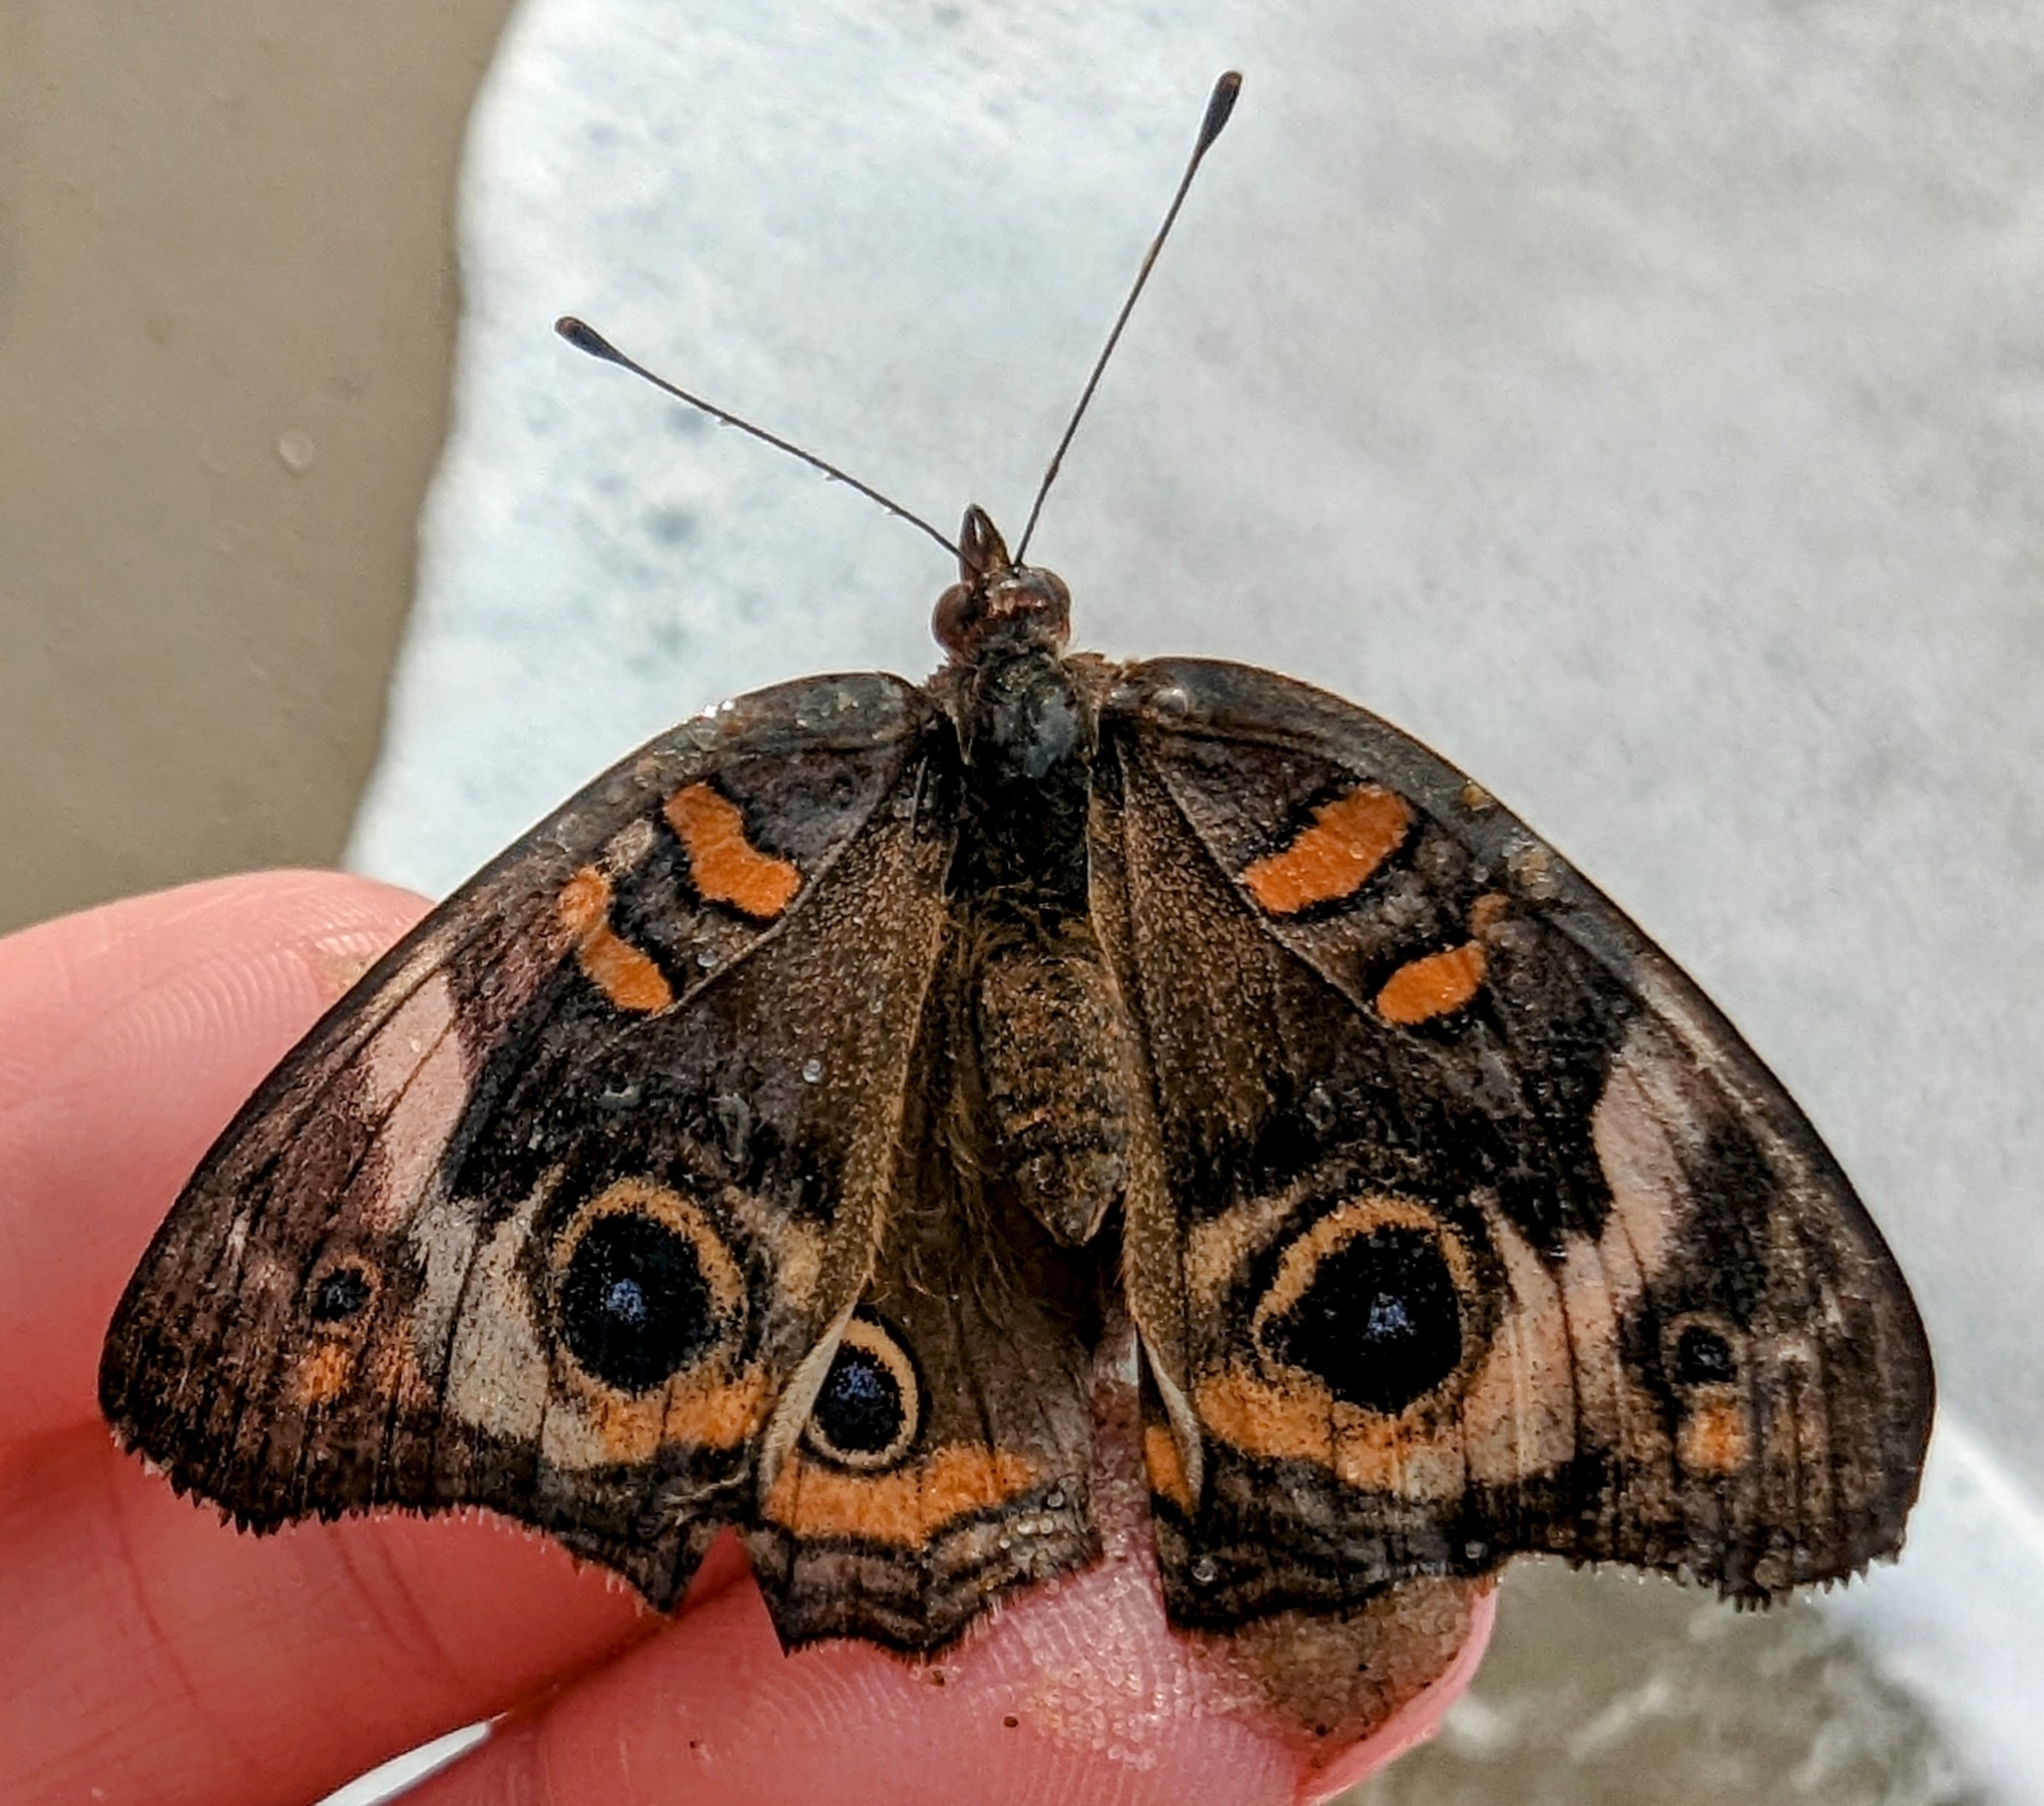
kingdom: Animalia
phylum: Arthropoda
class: Insecta
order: Lepidoptera
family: Nymphalidae
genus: Junonia
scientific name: Junonia coenia
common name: Common buckeye
